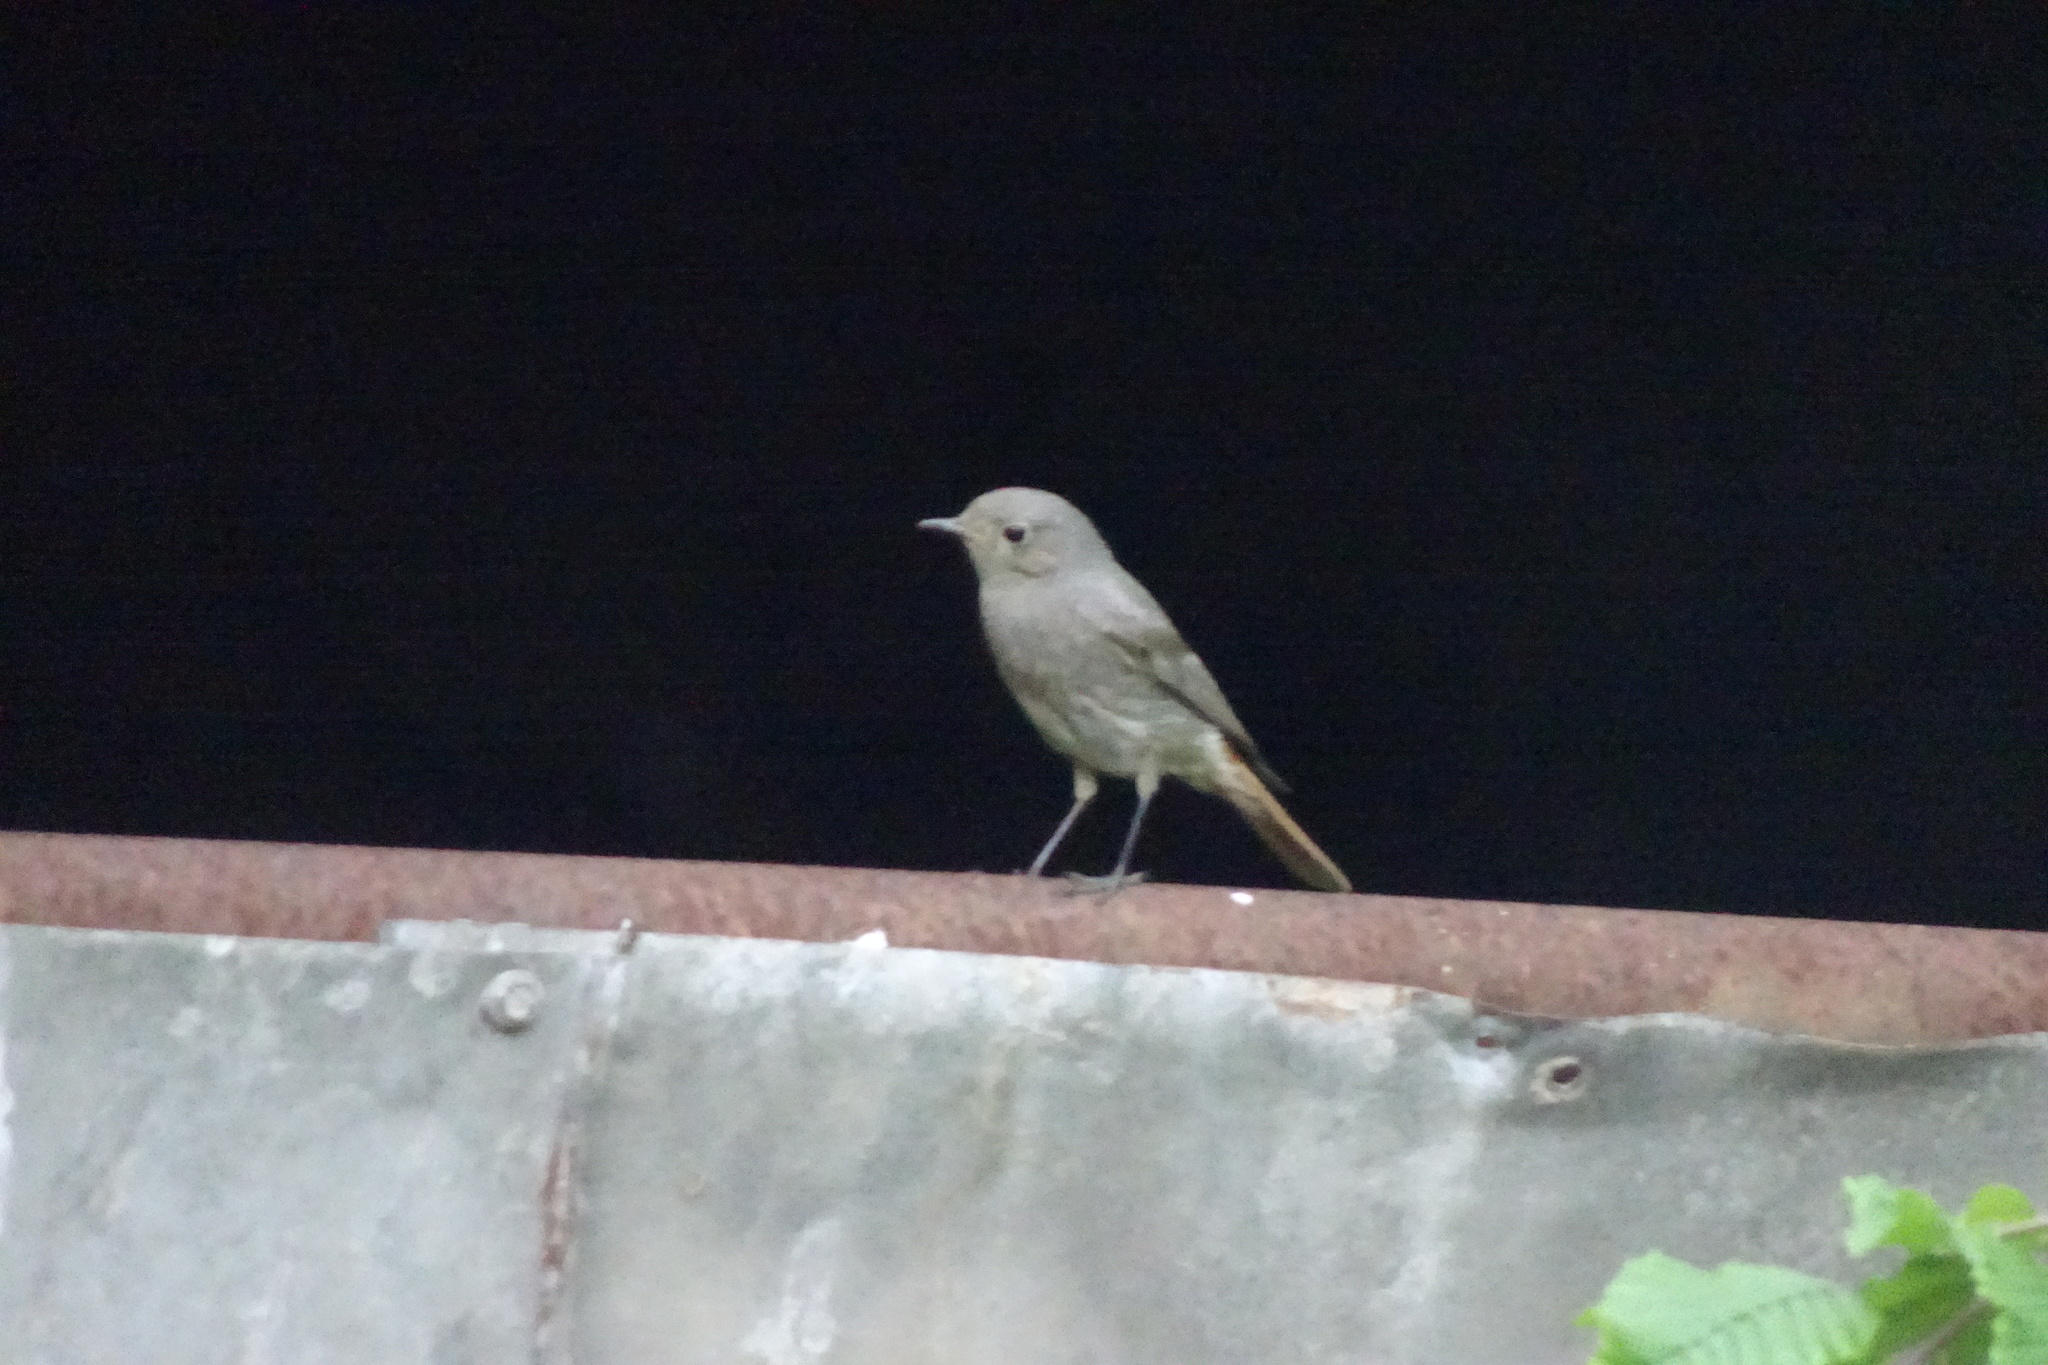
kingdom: Animalia
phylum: Chordata
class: Aves
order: Passeriformes
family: Muscicapidae
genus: Phoenicurus
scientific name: Phoenicurus ochruros
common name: Black redstart
